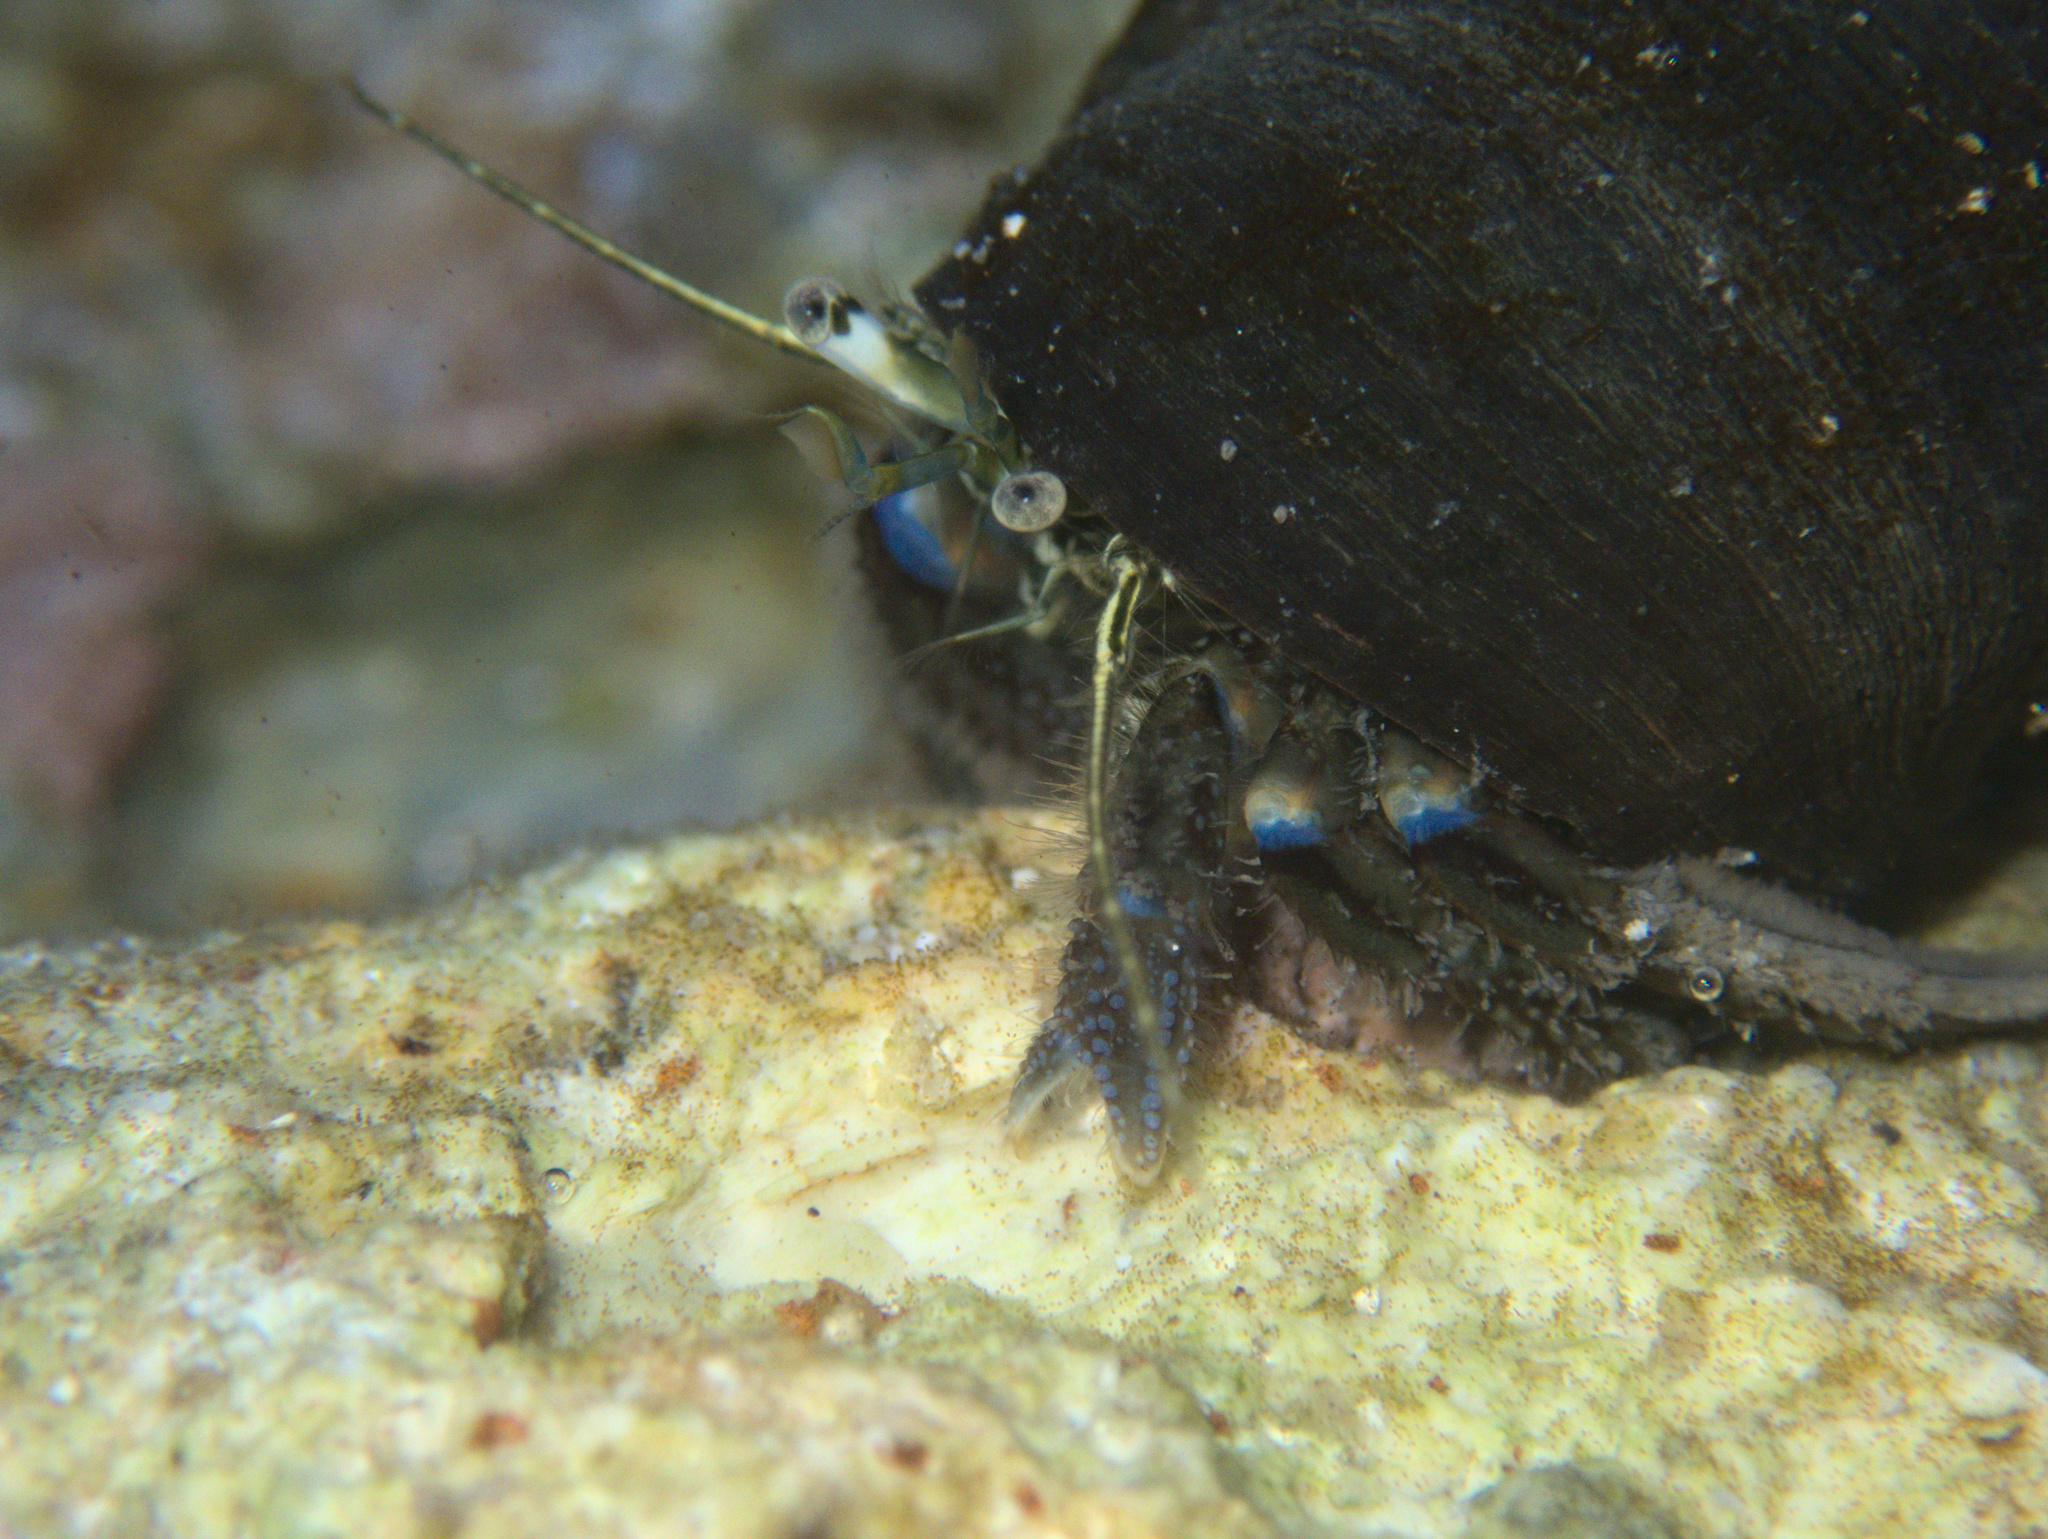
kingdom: Animalia
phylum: Arthropoda
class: Malacostraca
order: Decapoda
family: Paguridae
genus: Pagurus
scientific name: Pagurus novizealandiae
